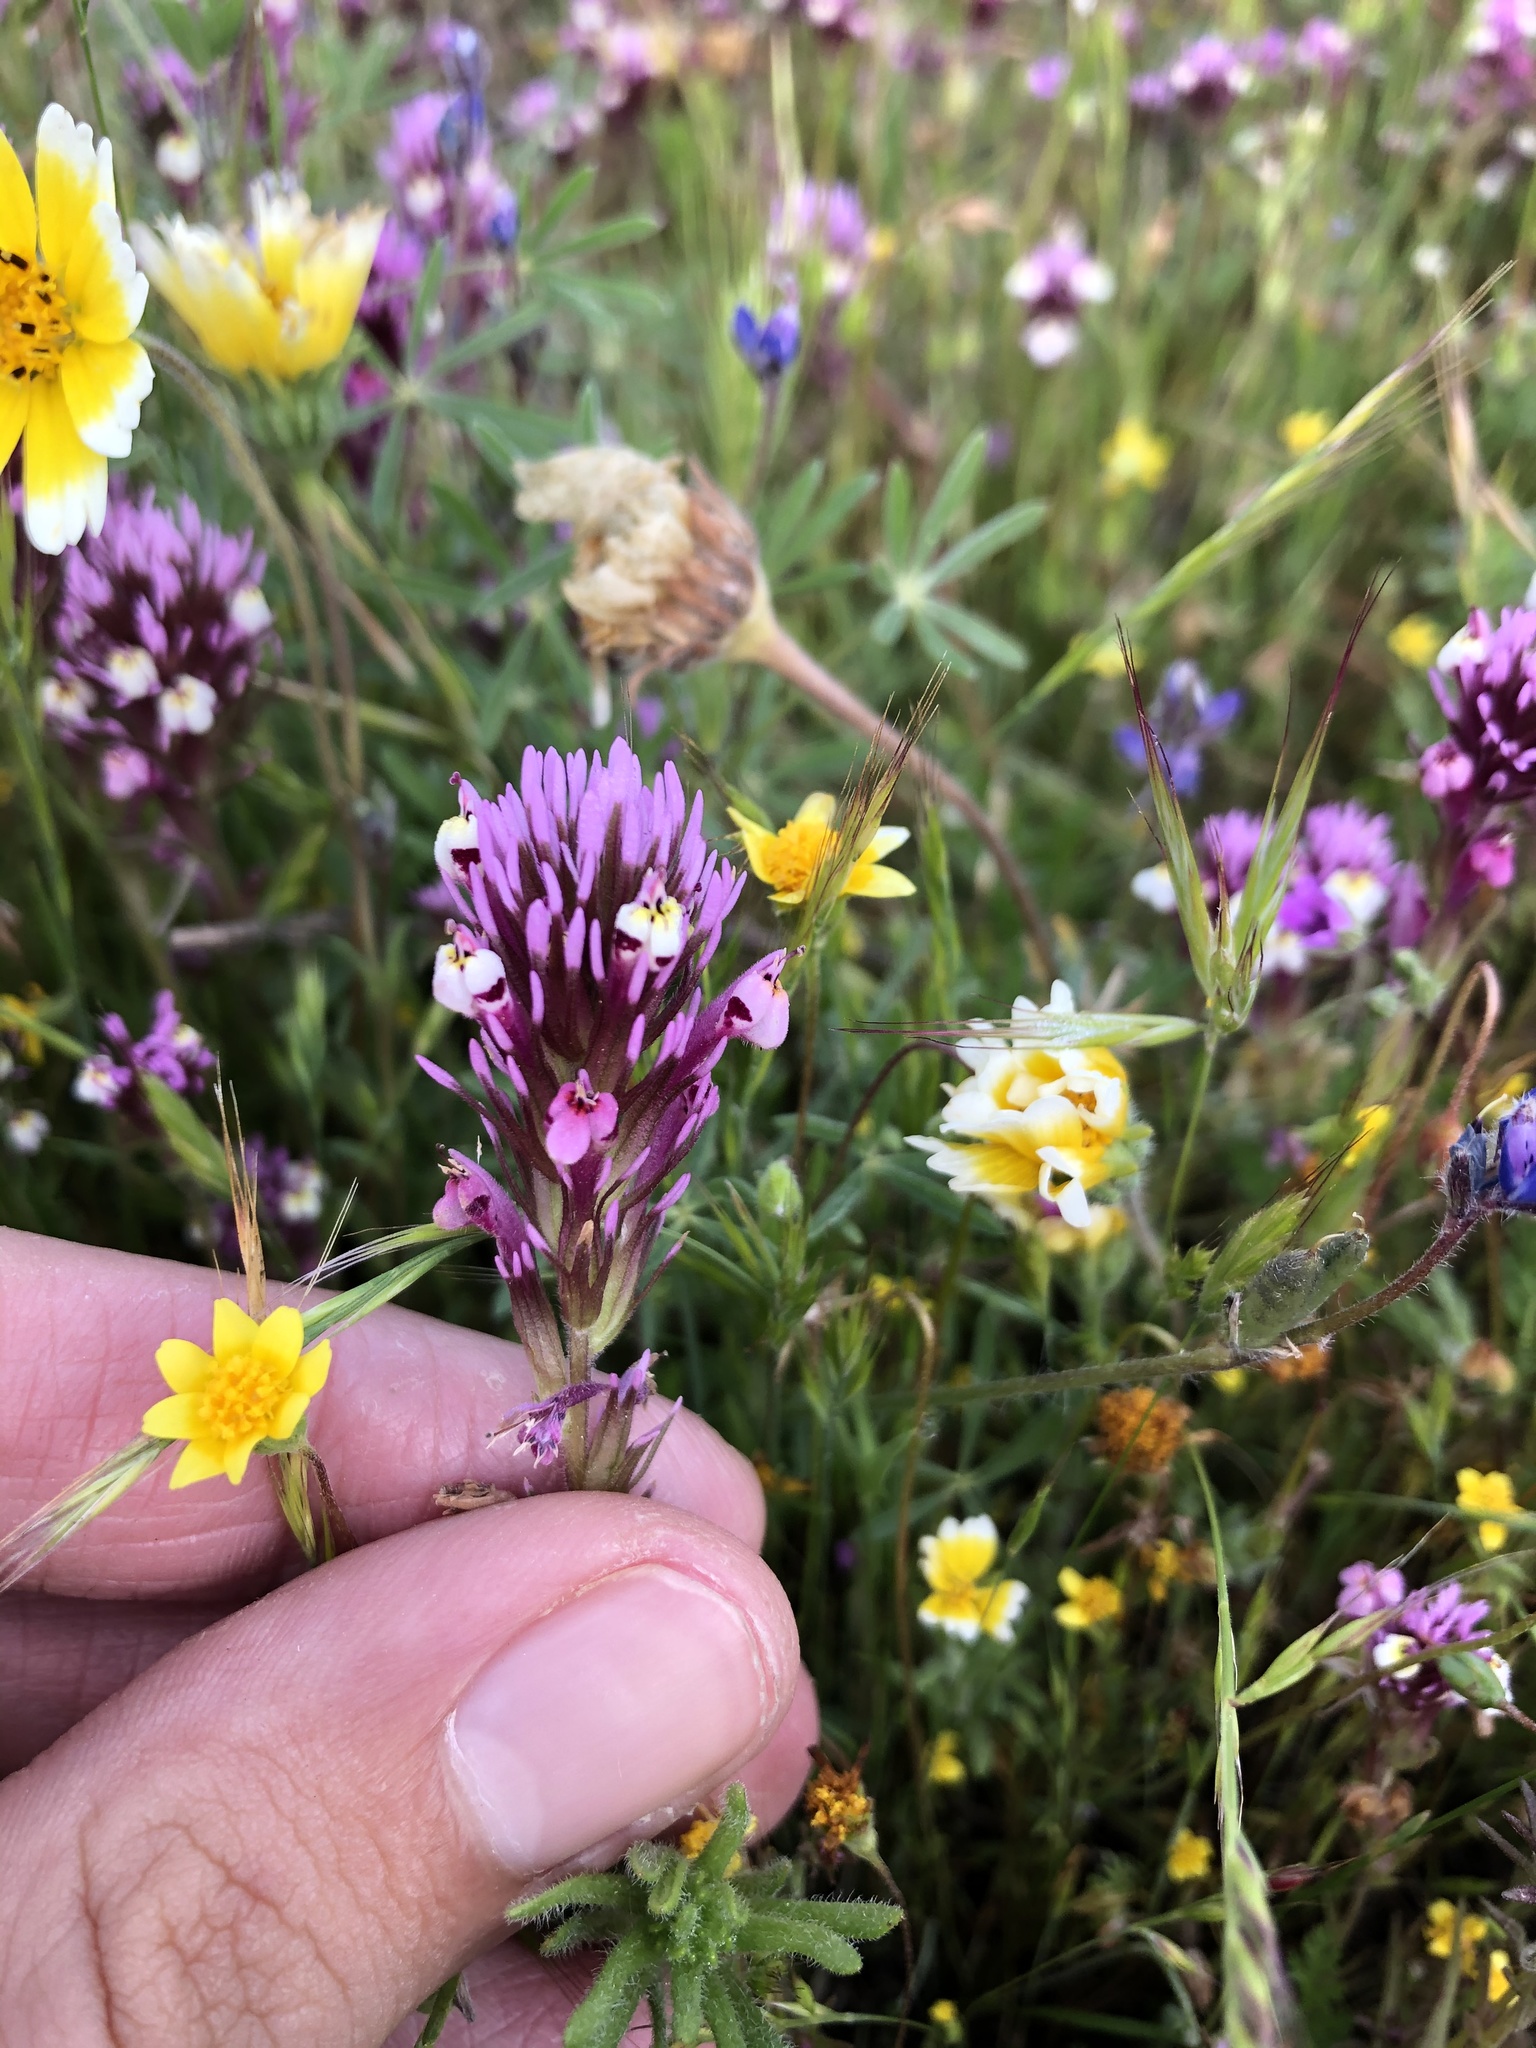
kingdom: Plantae
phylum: Tracheophyta
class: Magnoliopsida
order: Lamiales
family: Orobanchaceae
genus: Castilleja
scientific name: Castilleja densiflora
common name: Dense-flower indian paintbrush
